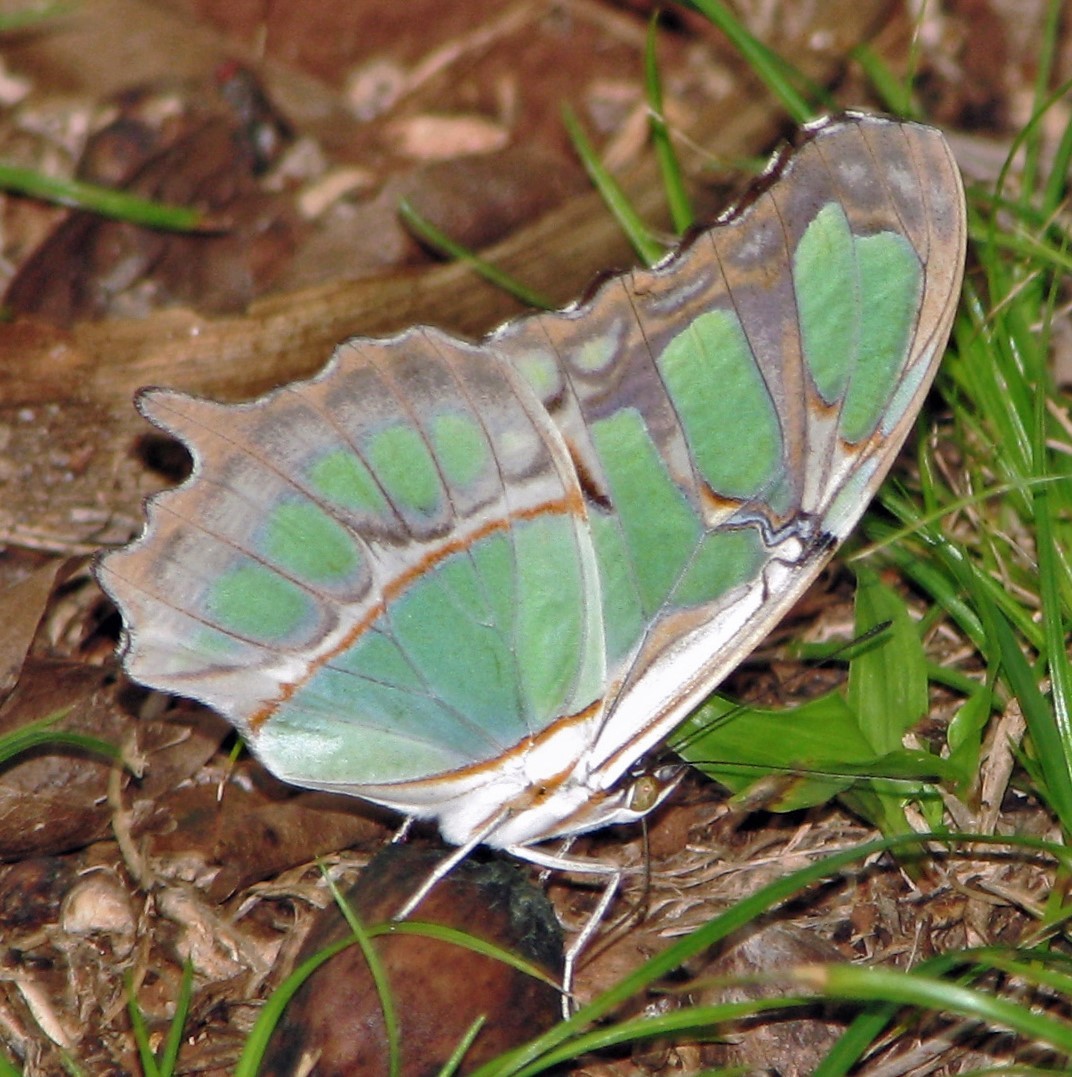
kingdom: Animalia
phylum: Arthropoda
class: Insecta
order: Lepidoptera
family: Nymphalidae
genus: Siproeta
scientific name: Siproeta stelenes
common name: Malachite
